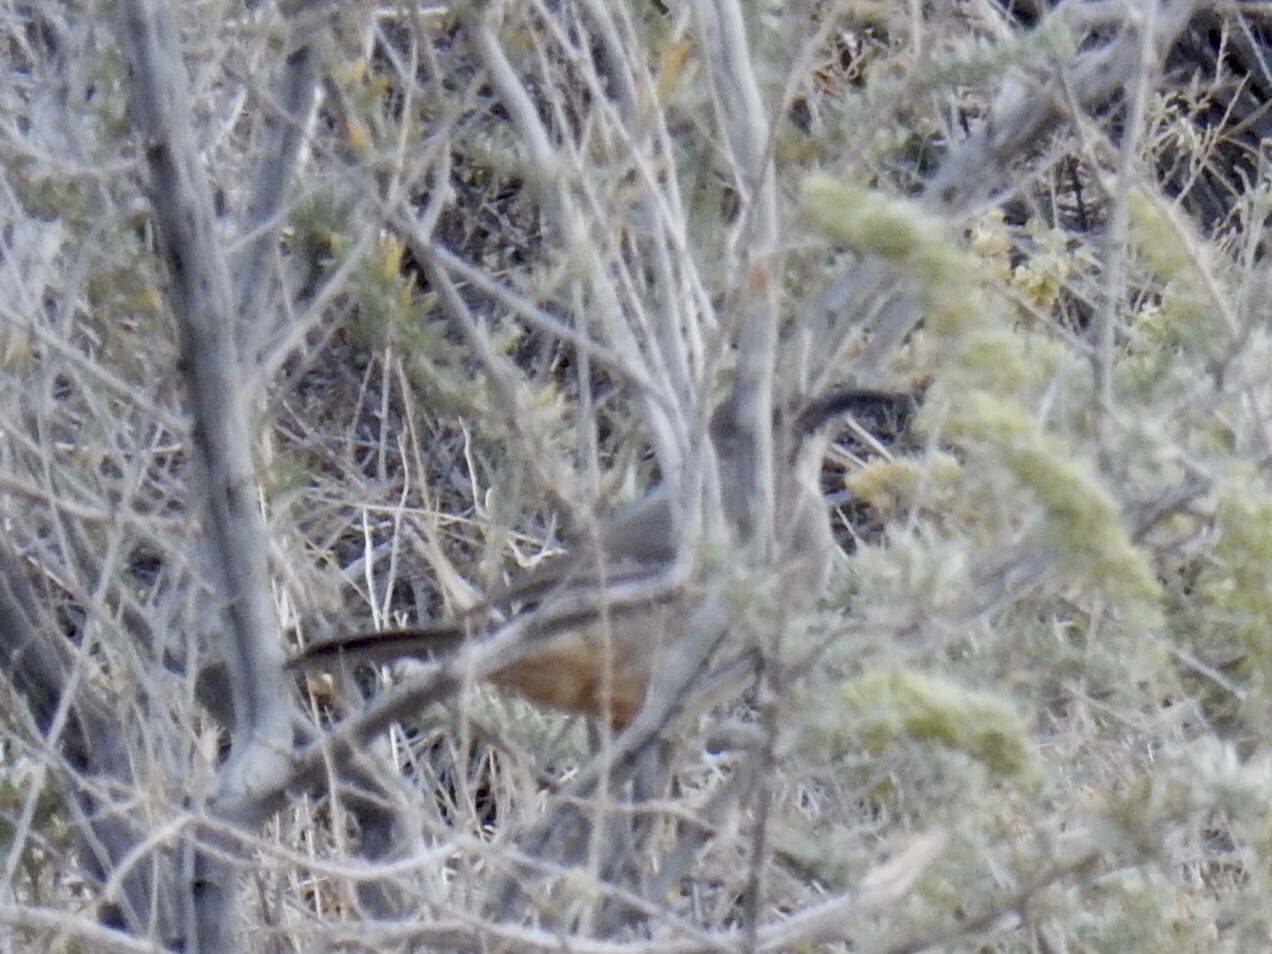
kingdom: Animalia
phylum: Chordata
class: Aves
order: Passeriformes
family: Mimidae
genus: Toxostoma
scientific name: Toxostoma curvirostre
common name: Curve-billed thrasher
